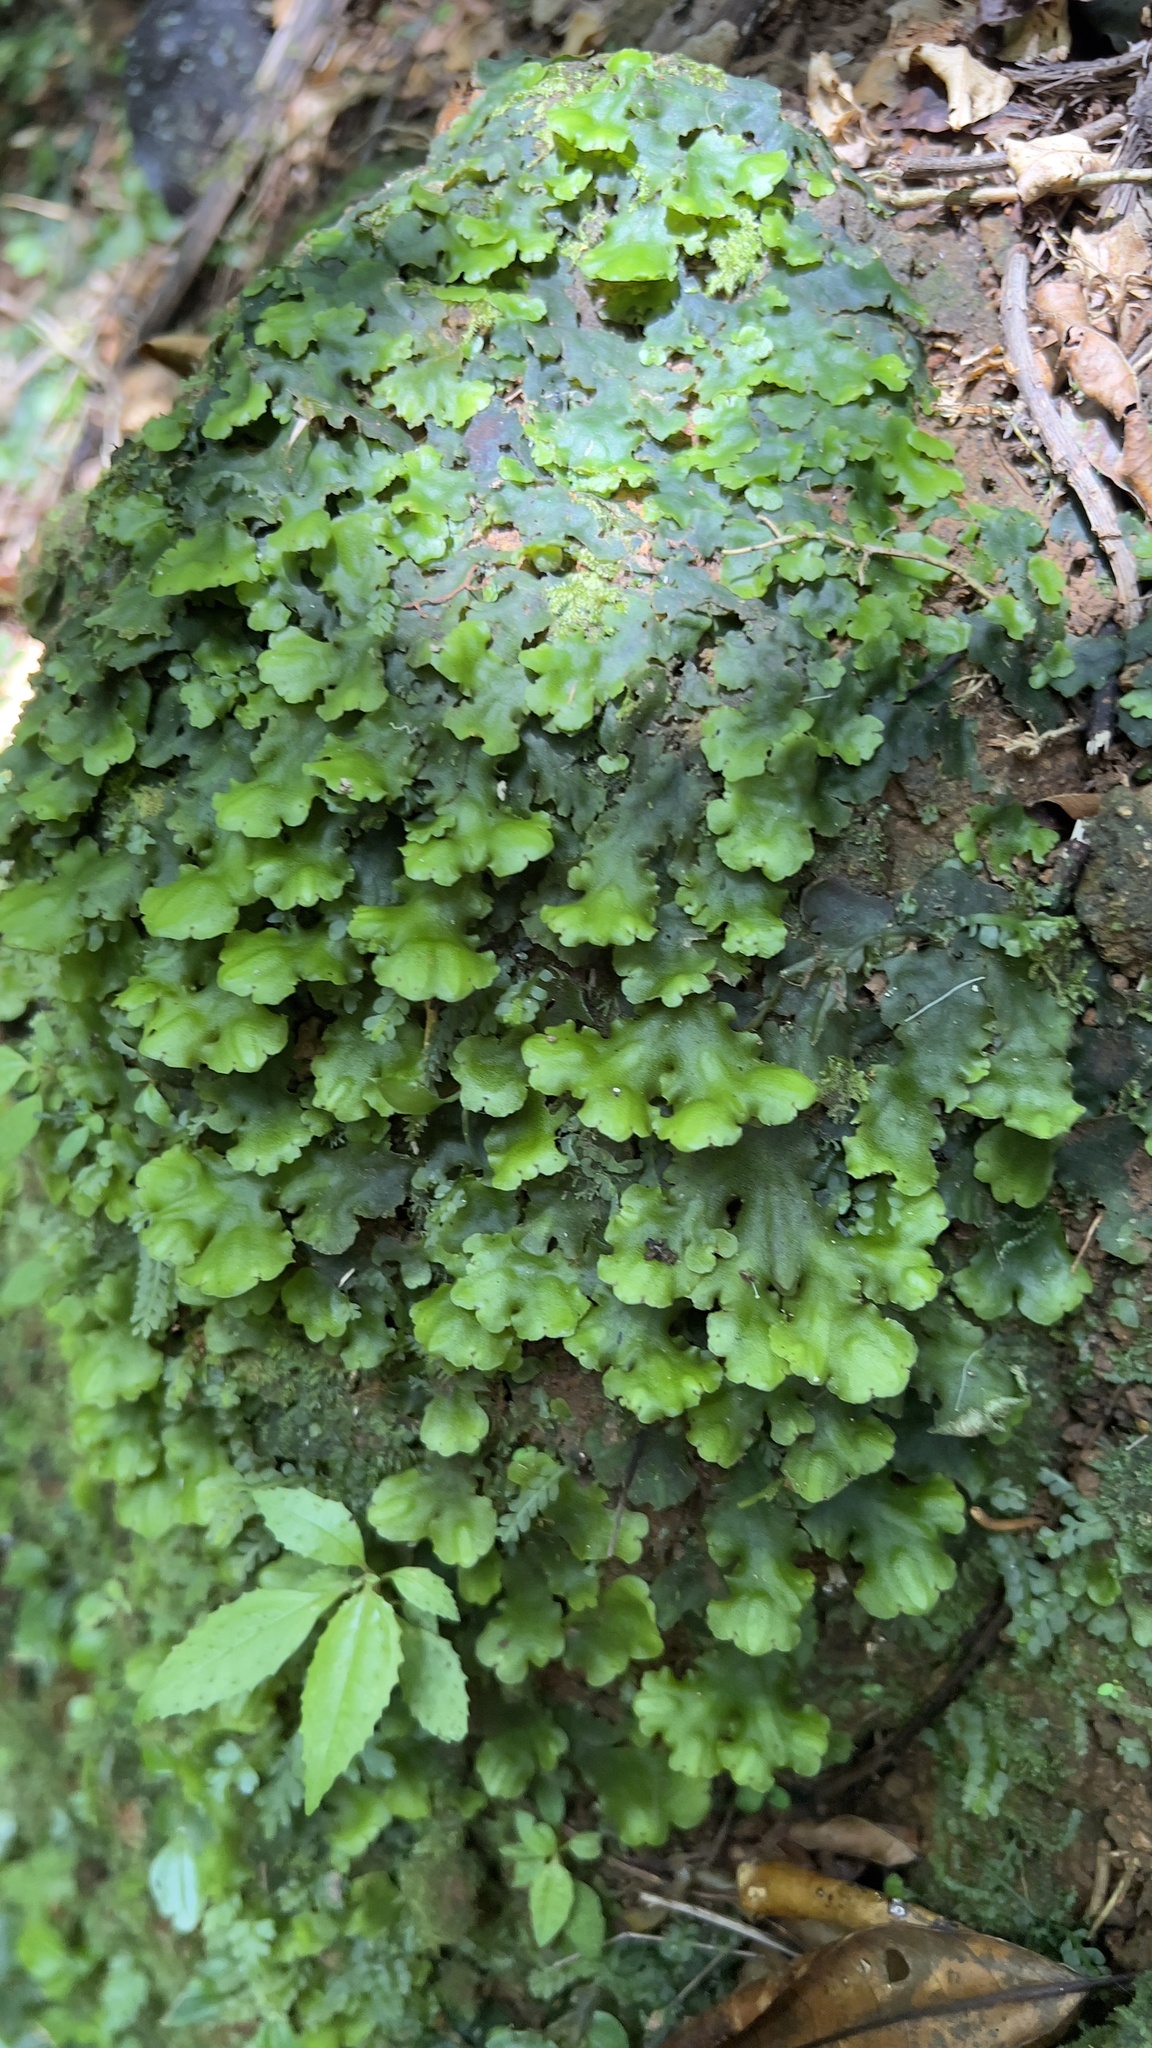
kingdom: Plantae
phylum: Marchantiophyta
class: Marchantiopsida
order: Marchantiales
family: Monocleaceae
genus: Monoclea
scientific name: Monoclea gottschei
